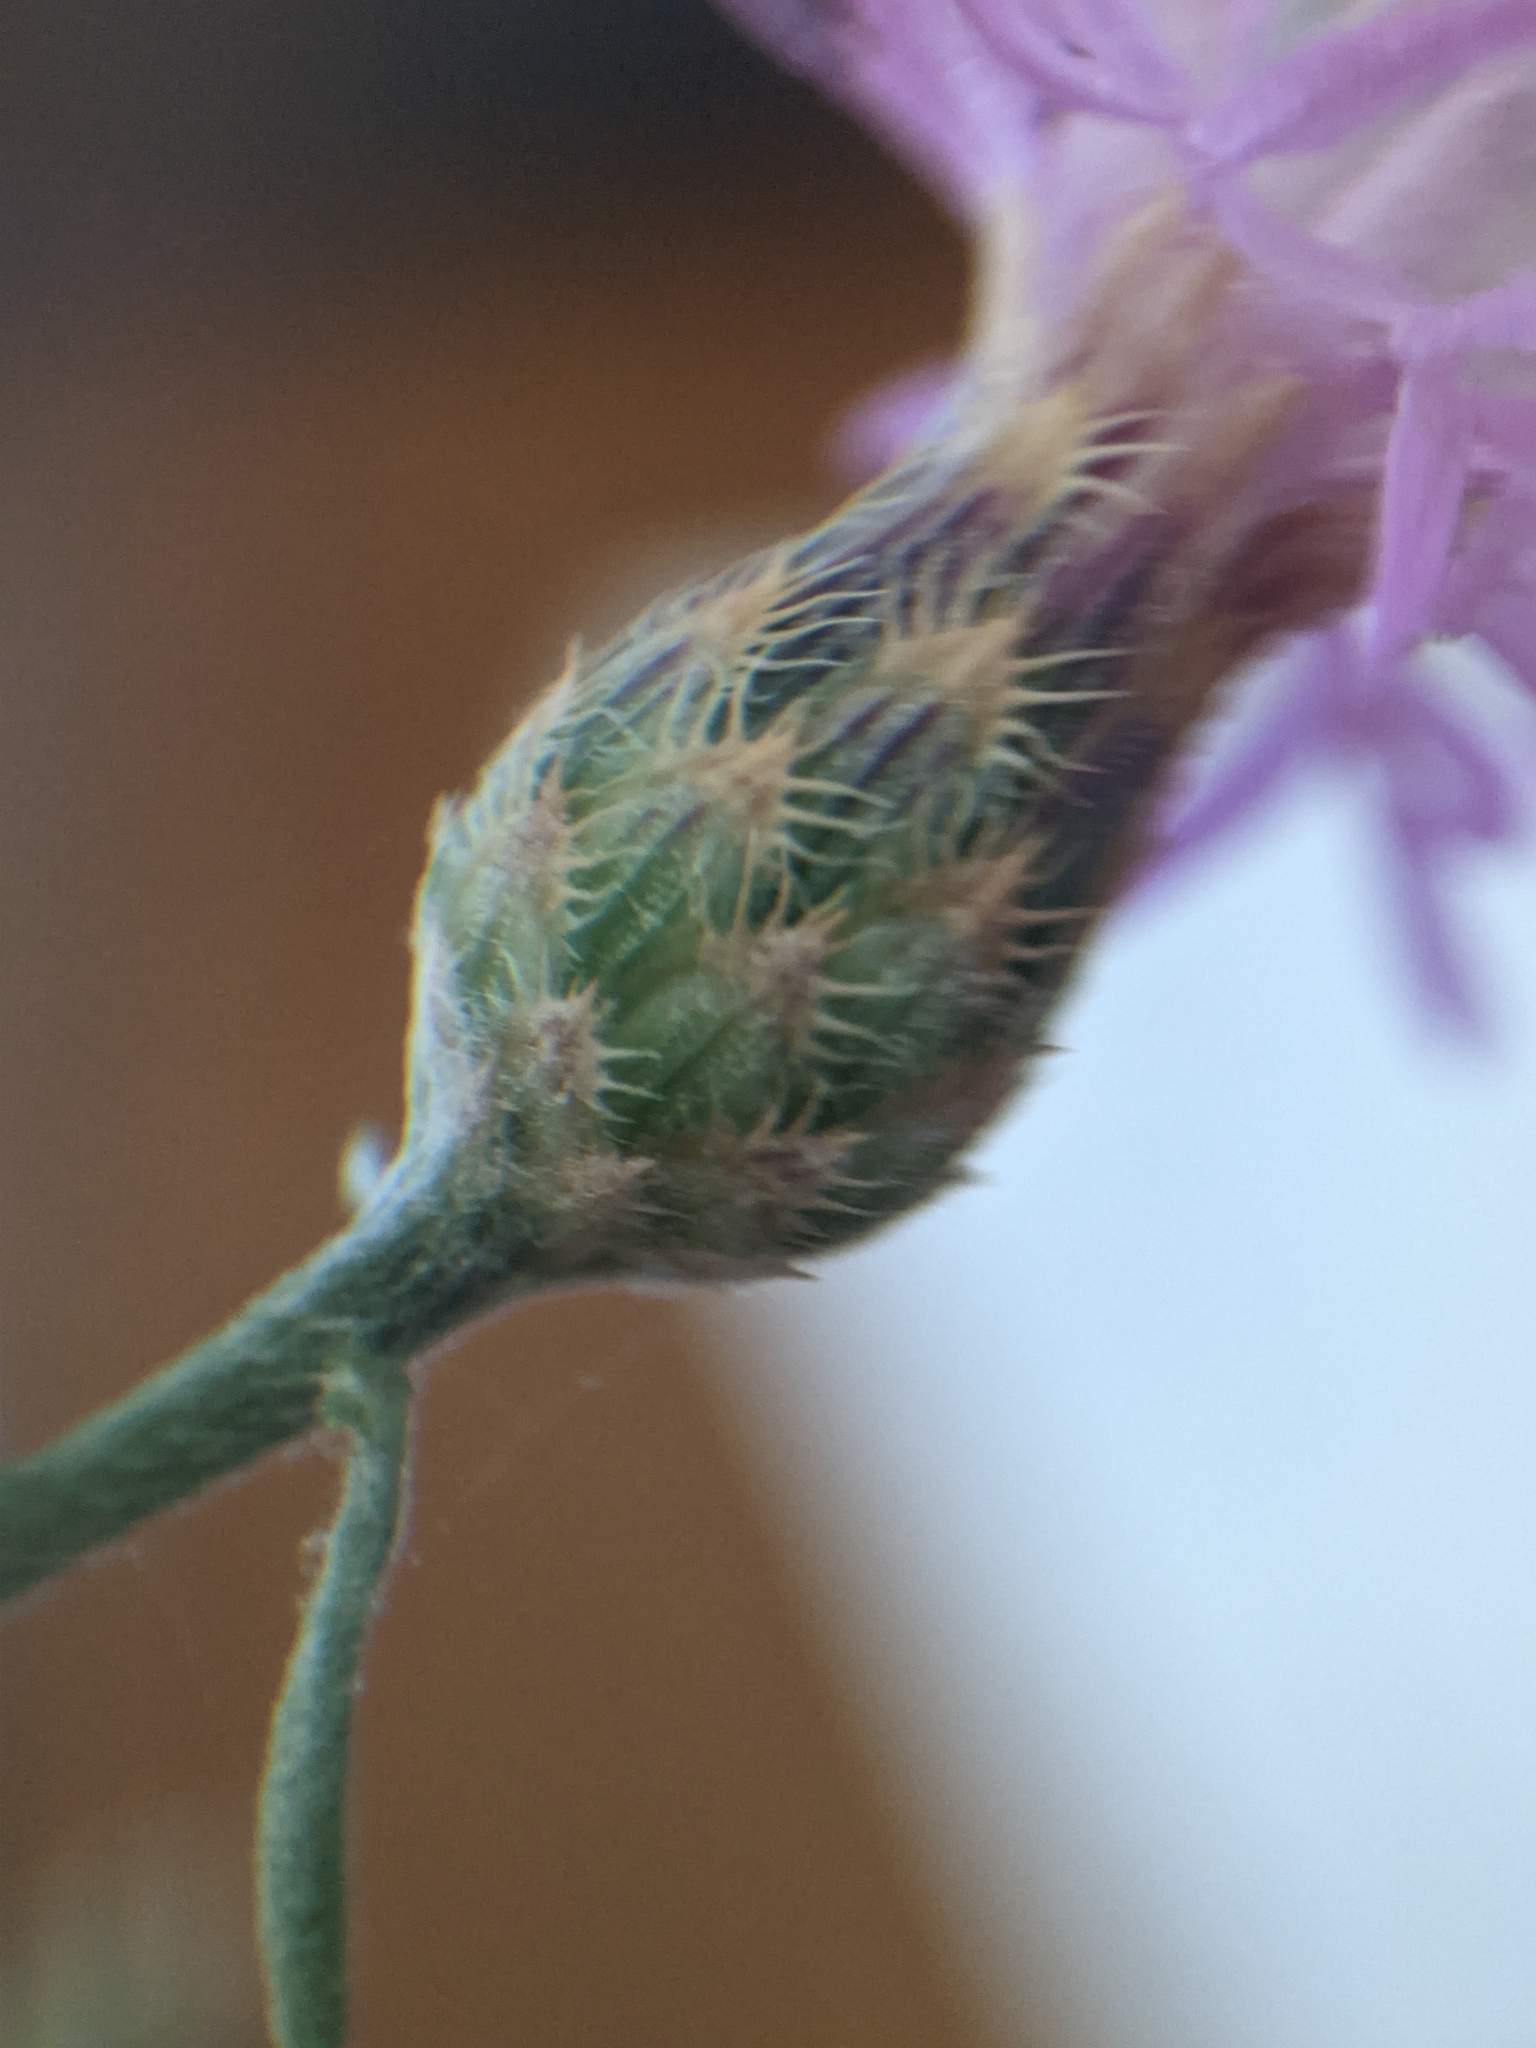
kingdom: Plantae
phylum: Tracheophyta
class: Magnoliopsida
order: Asterales
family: Asteraceae
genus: Centaurea
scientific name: Centaurea paniculata
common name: Jersey knapweed
